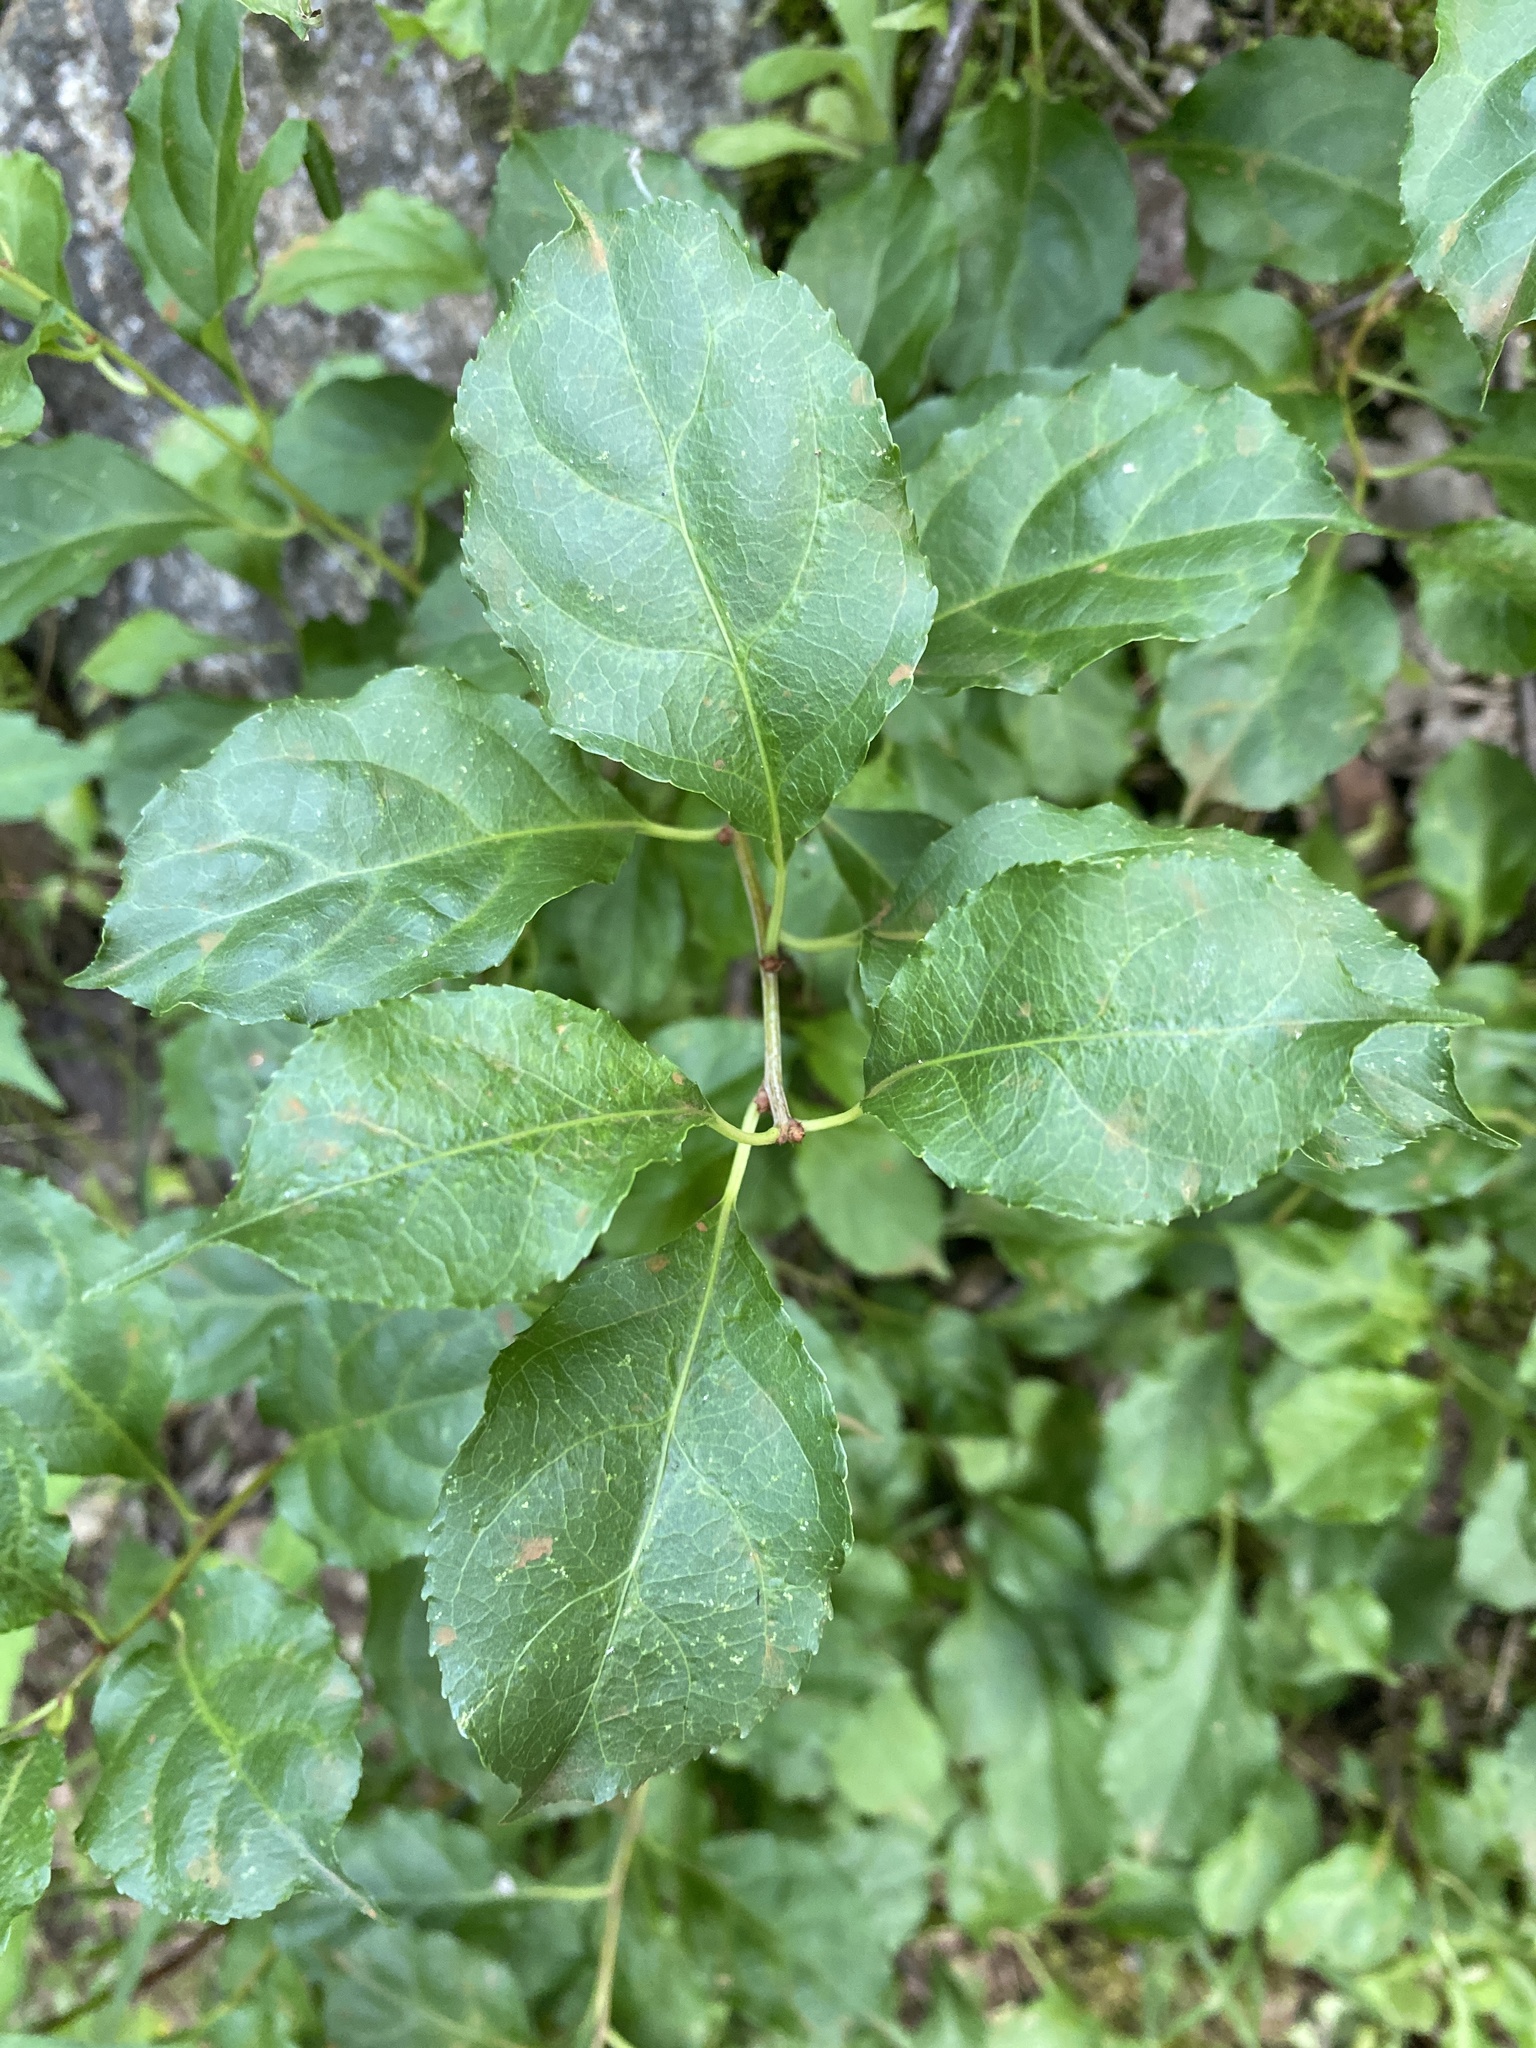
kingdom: Plantae
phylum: Tracheophyta
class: Magnoliopsida
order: Celastrales
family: Celastraceae
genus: Celastrus
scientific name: Celastrus orbiculatus
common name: Oriental bittersweet
